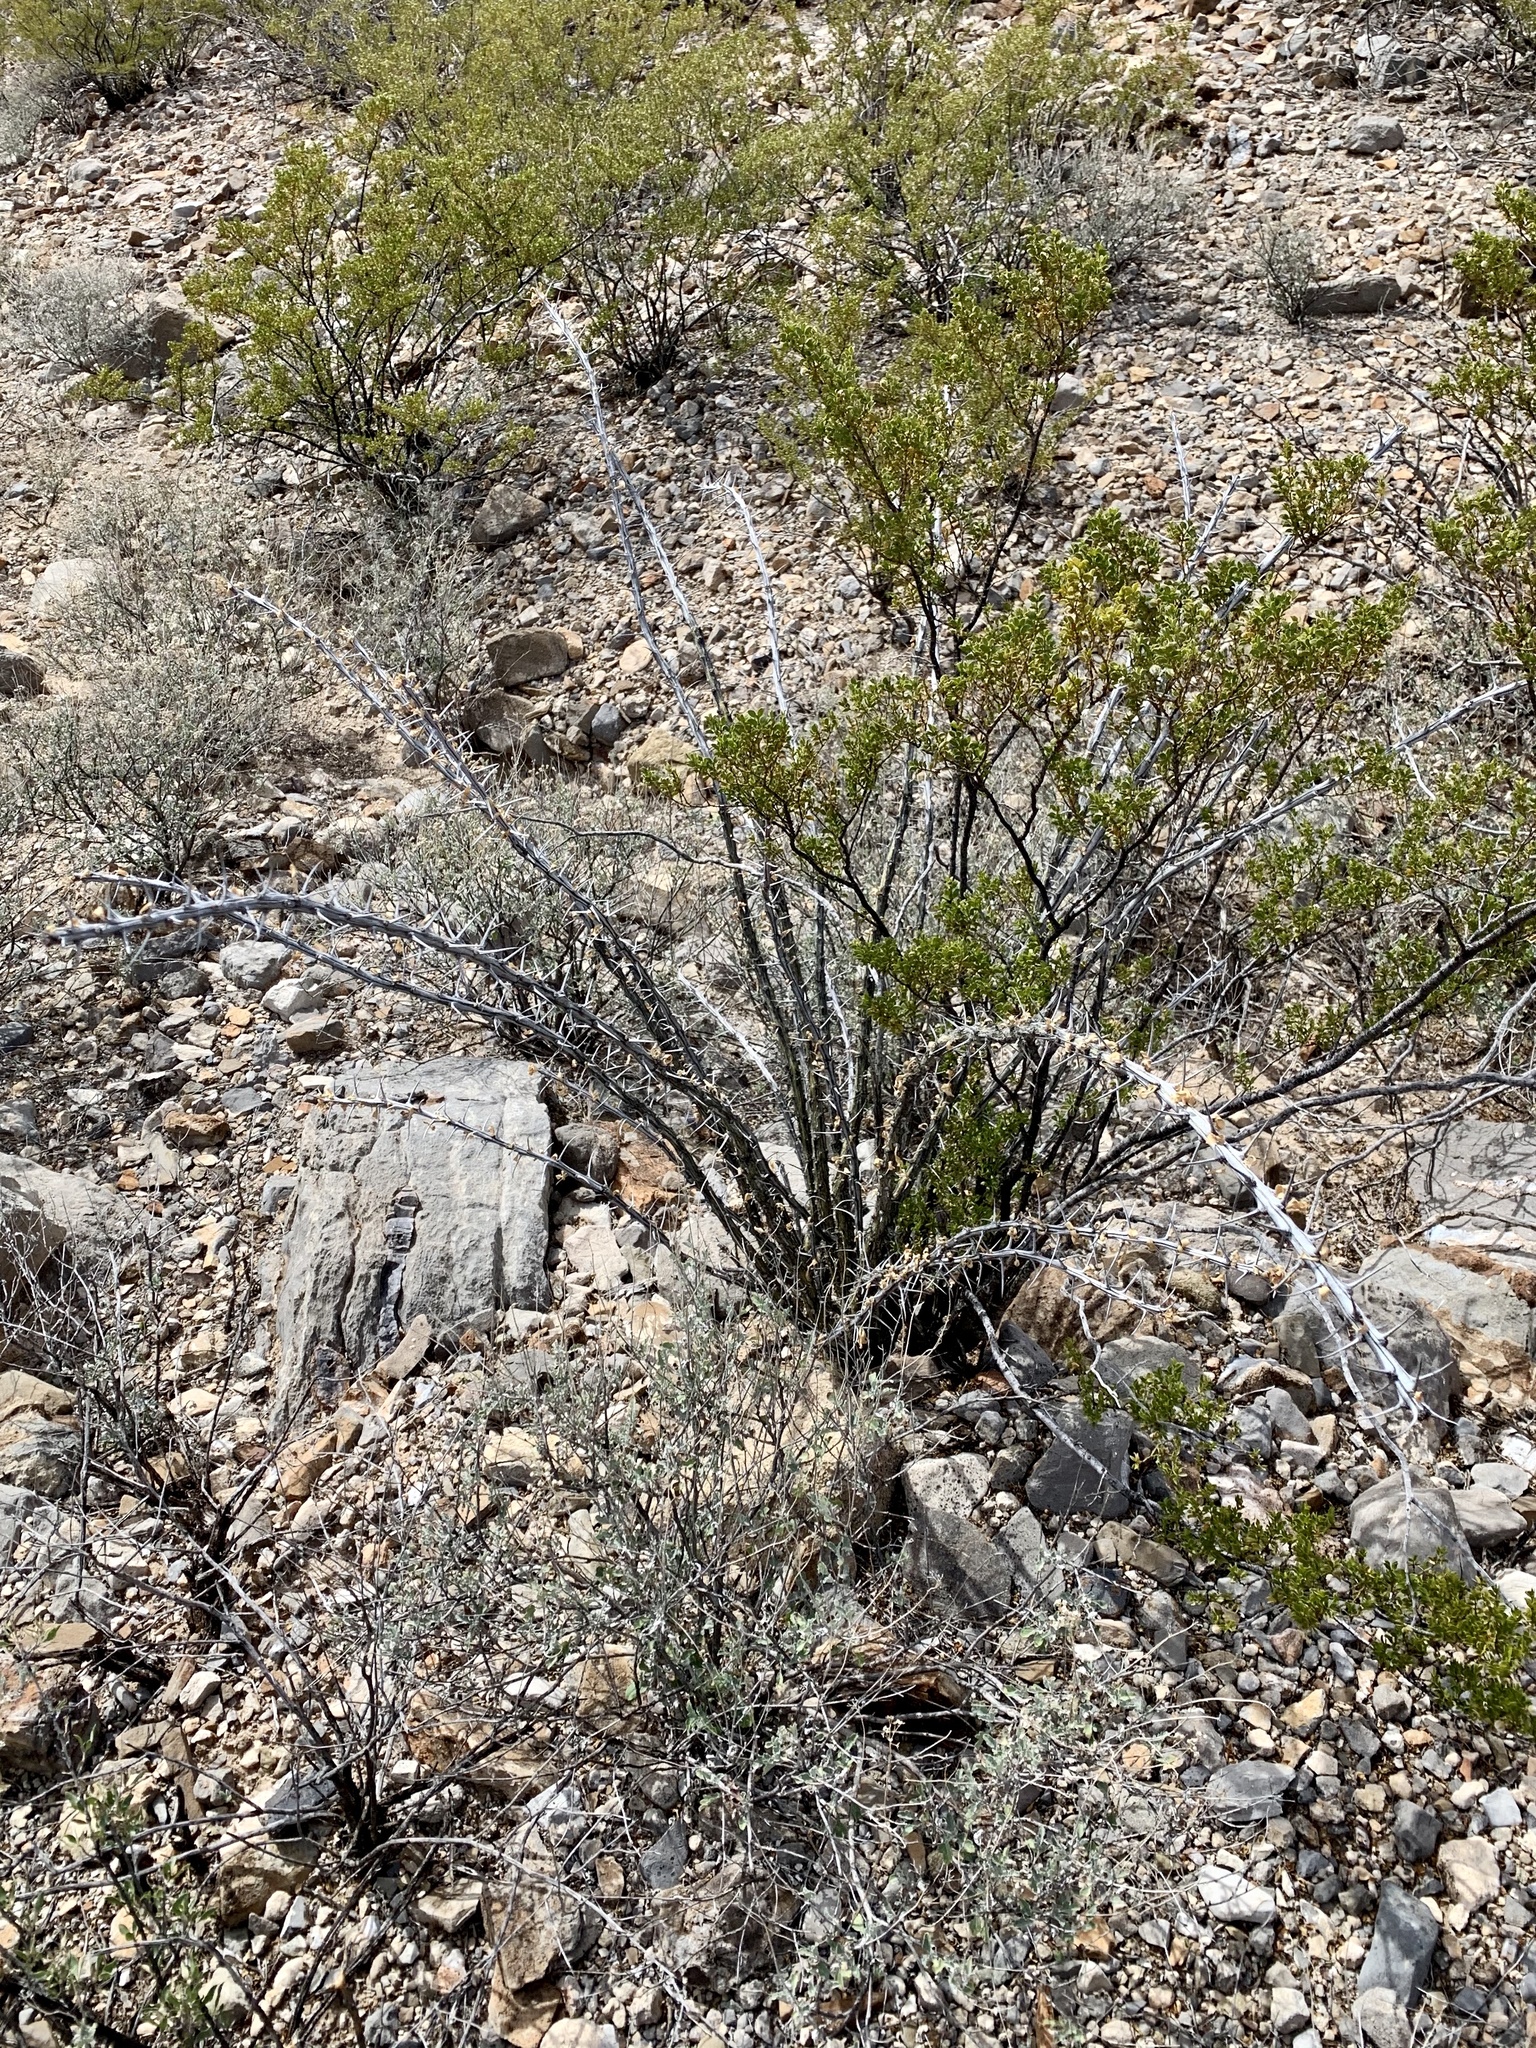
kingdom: Plantae
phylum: Tracheophyta
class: Magnoliopsida
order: Ericales
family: Fouquieriaceae
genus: Fouquieria
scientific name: Fouquieria splendens
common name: Vine-cactus
